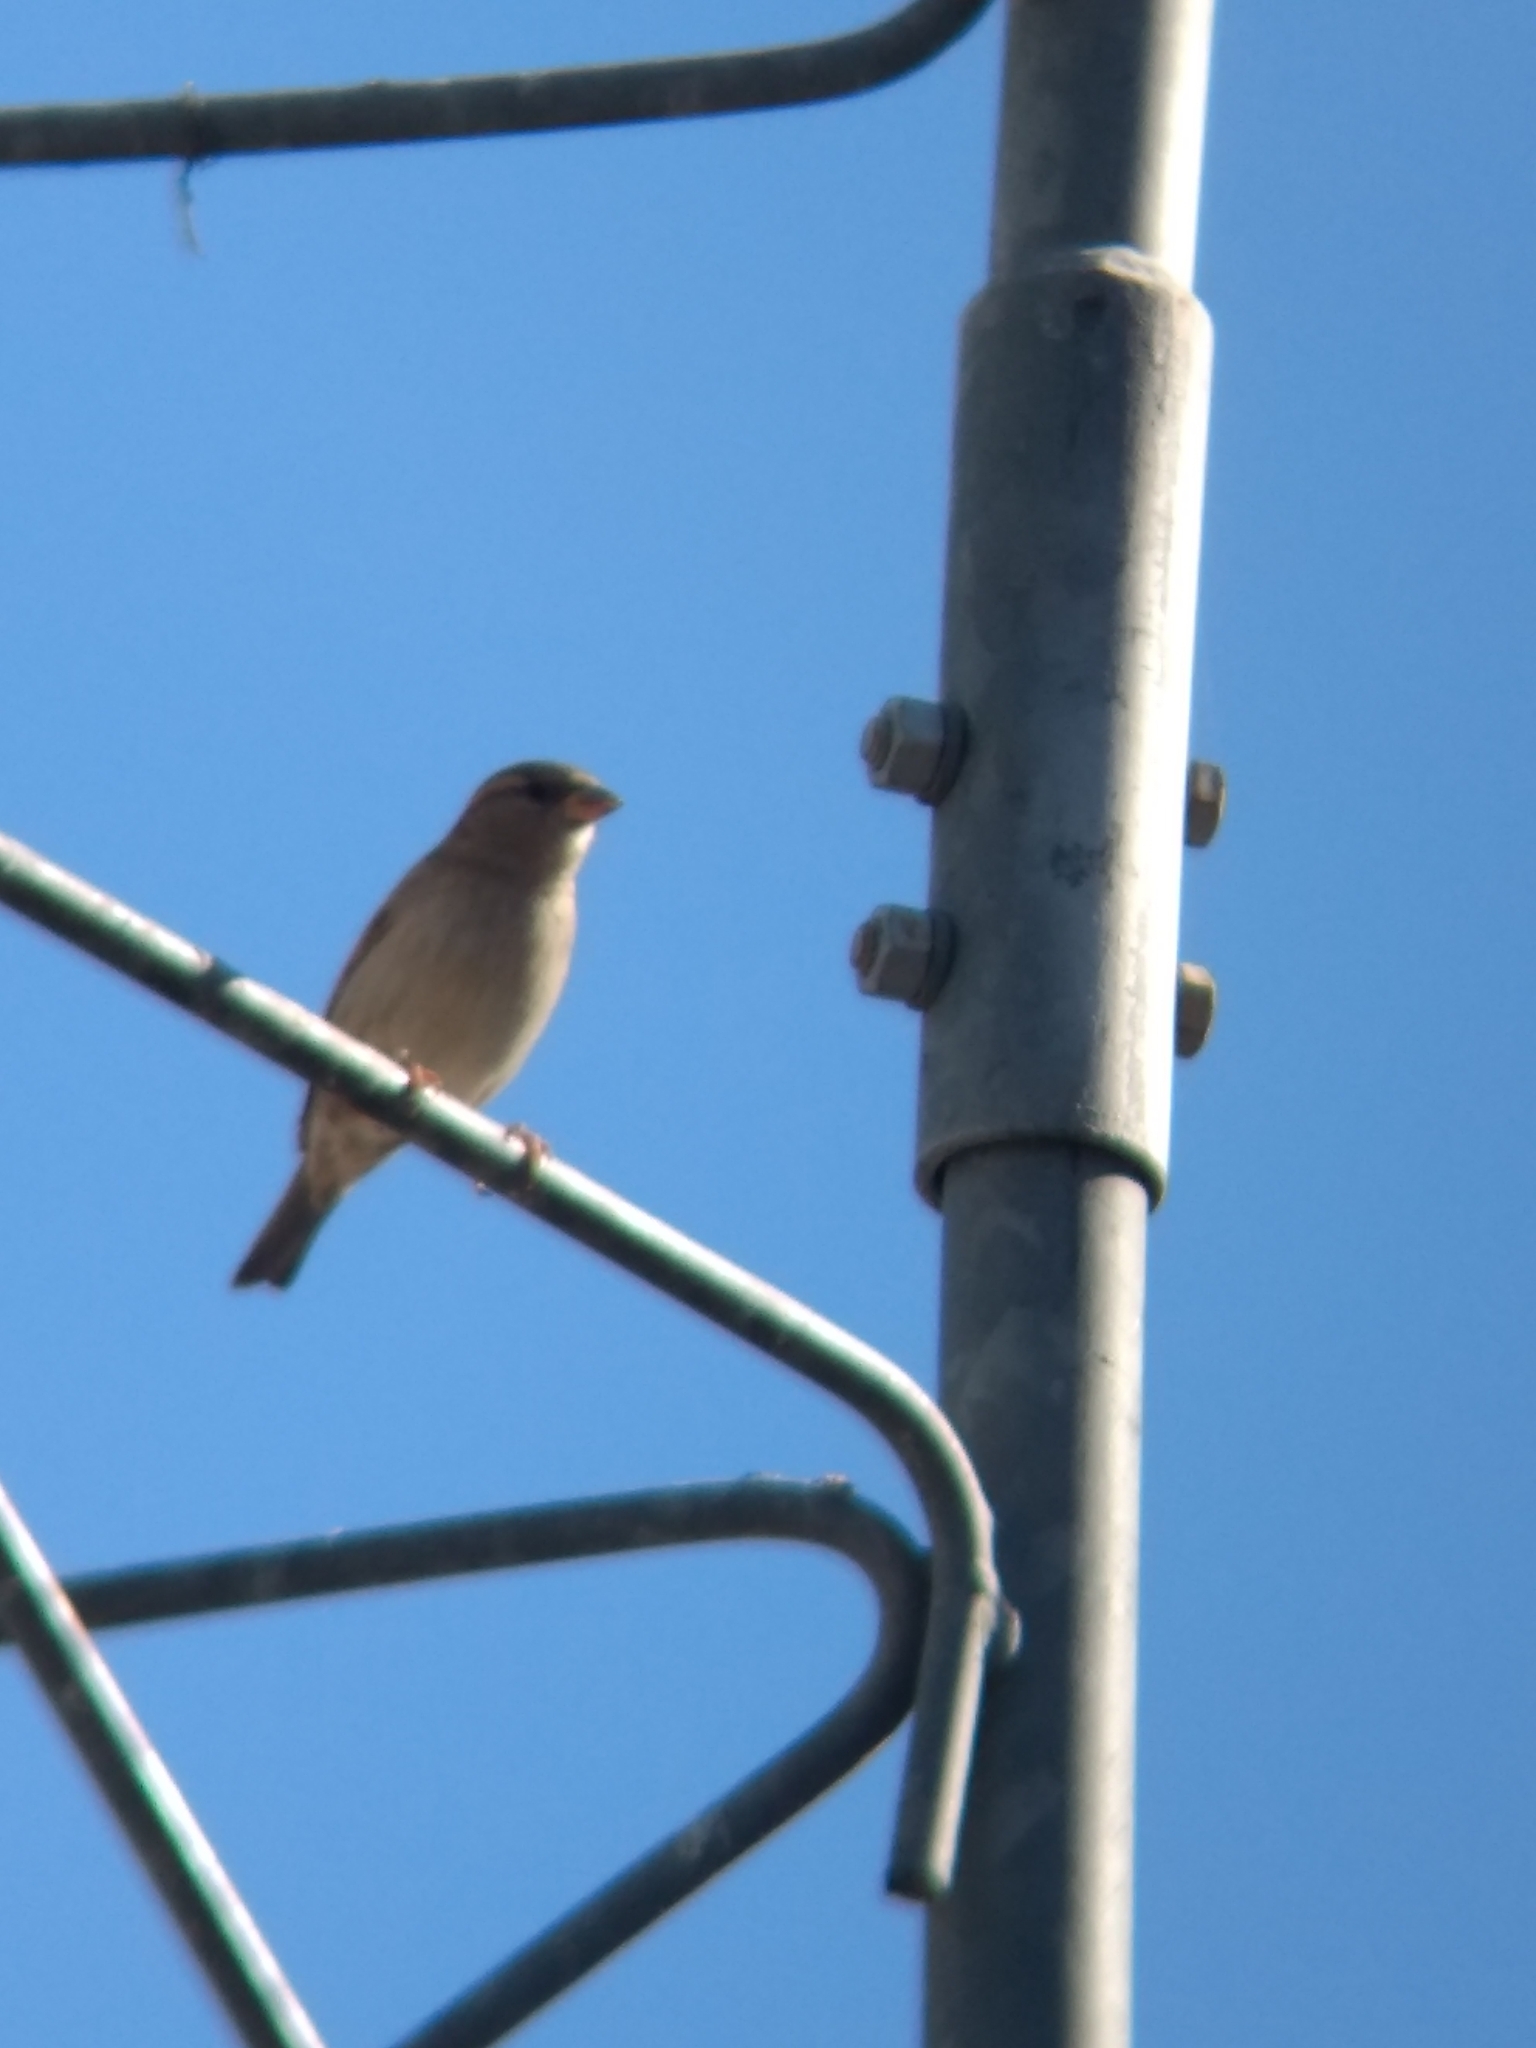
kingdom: Animalia
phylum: Chordata
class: Aves
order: Passeriformes
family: Passeridae
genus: Passer
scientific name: Passer domesticus
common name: House sparrow
